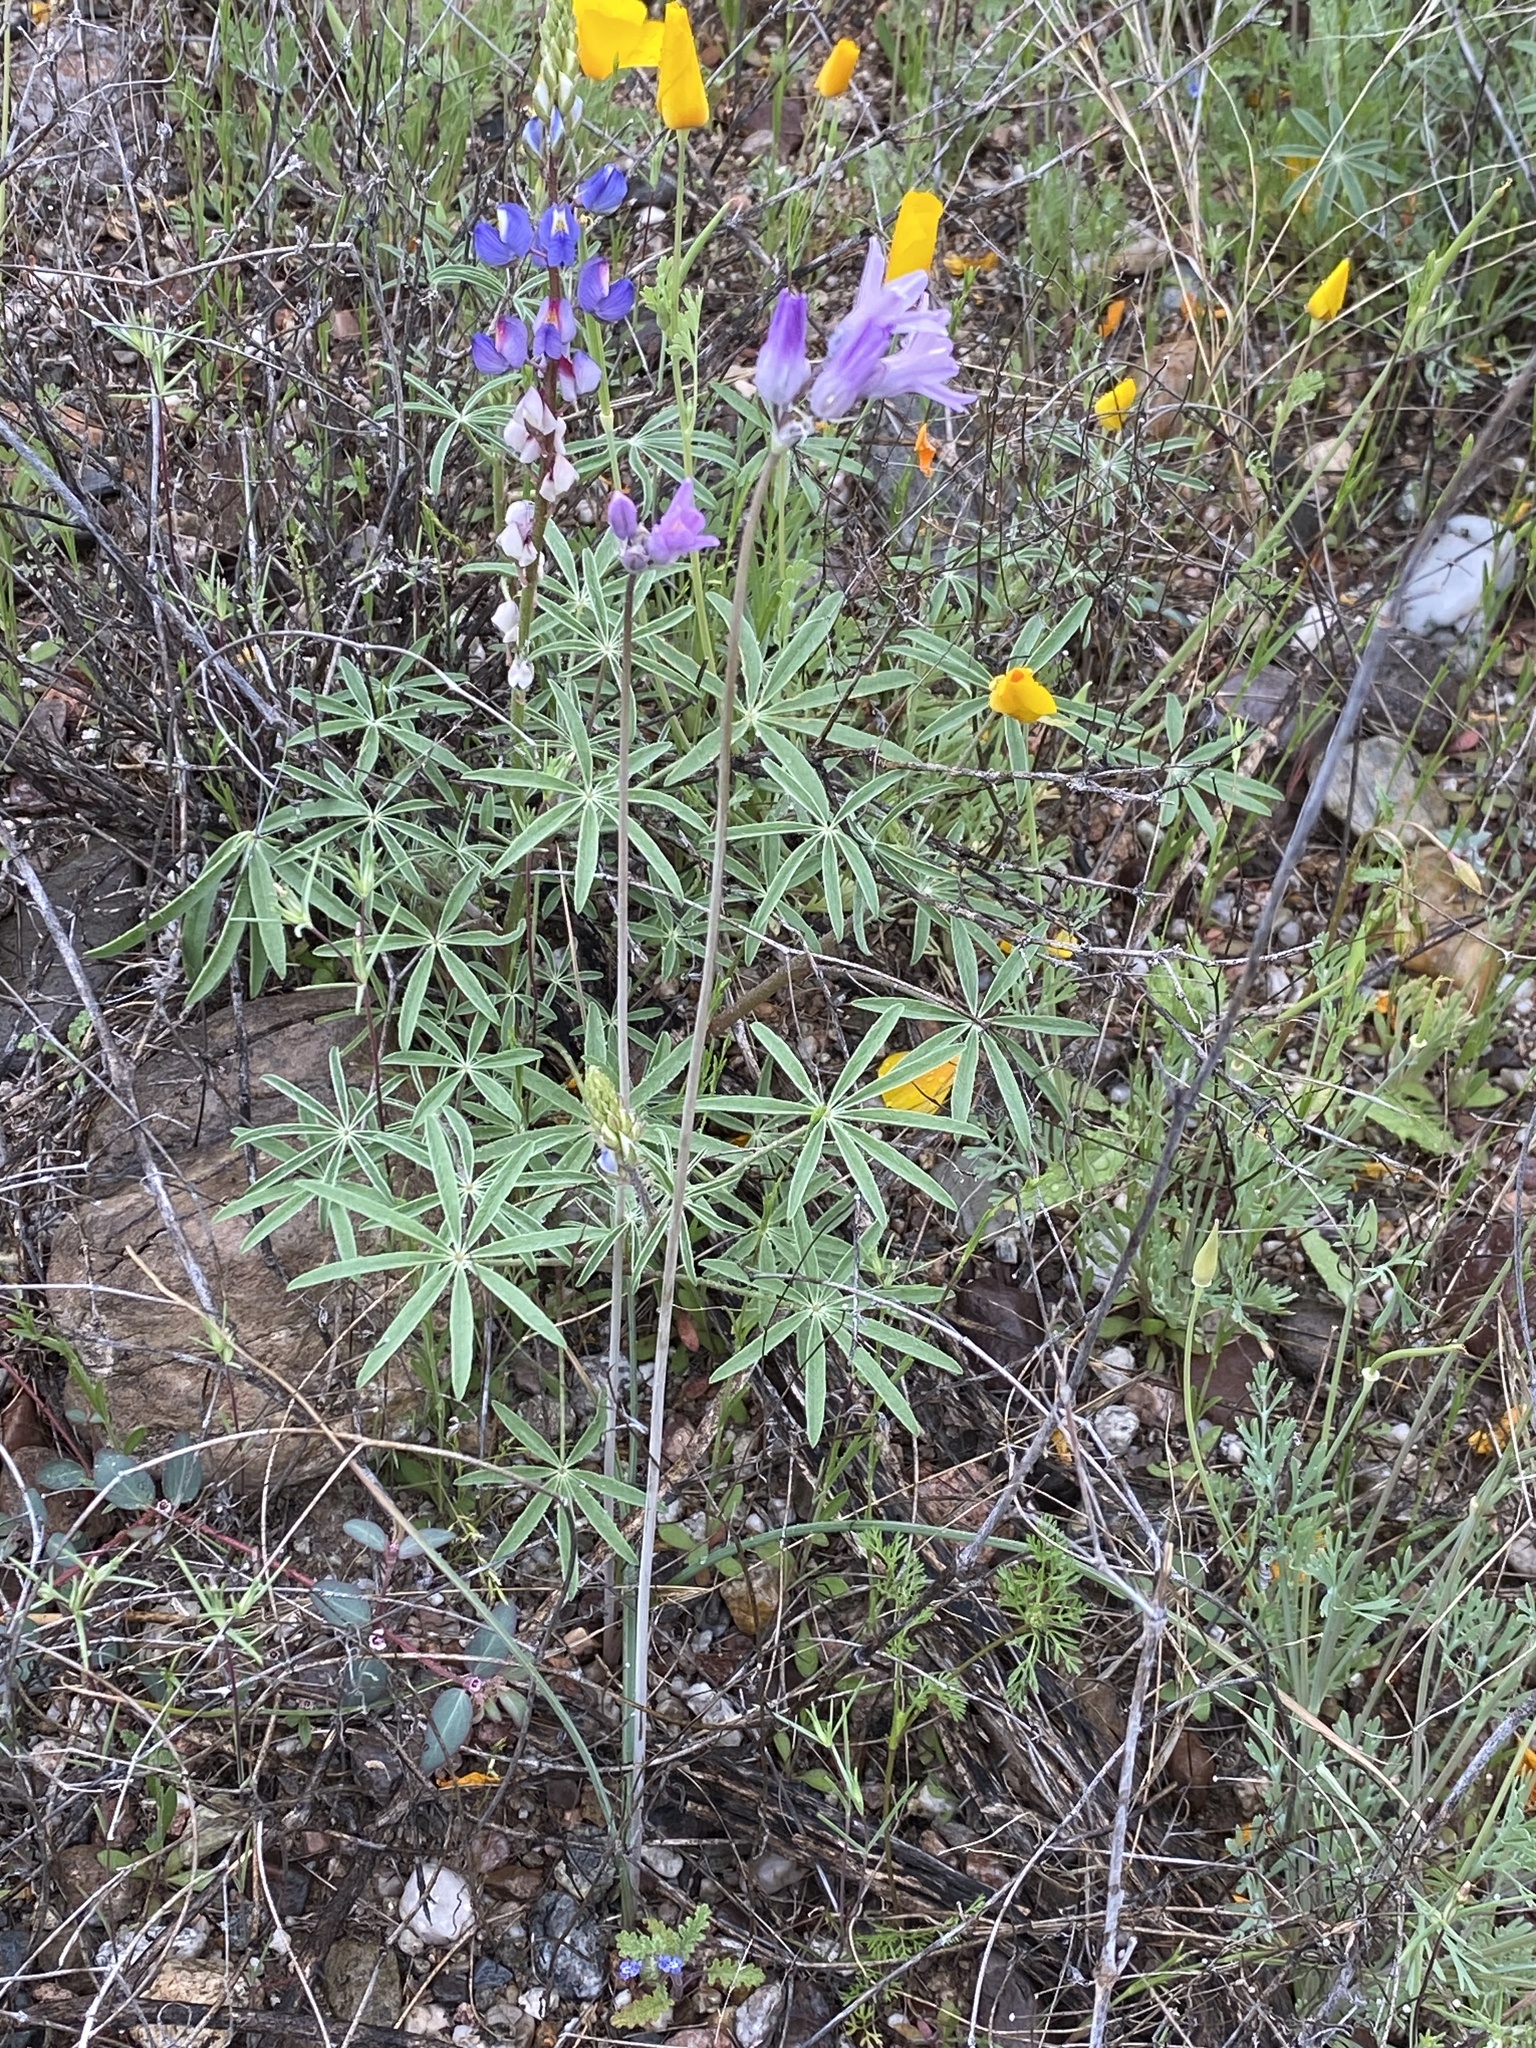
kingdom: Plantae
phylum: Tracheophyta
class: Liliopsida
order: Asparagales
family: Asparagaceae
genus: Dipterostemon
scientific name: Dipterostemon capitatus
